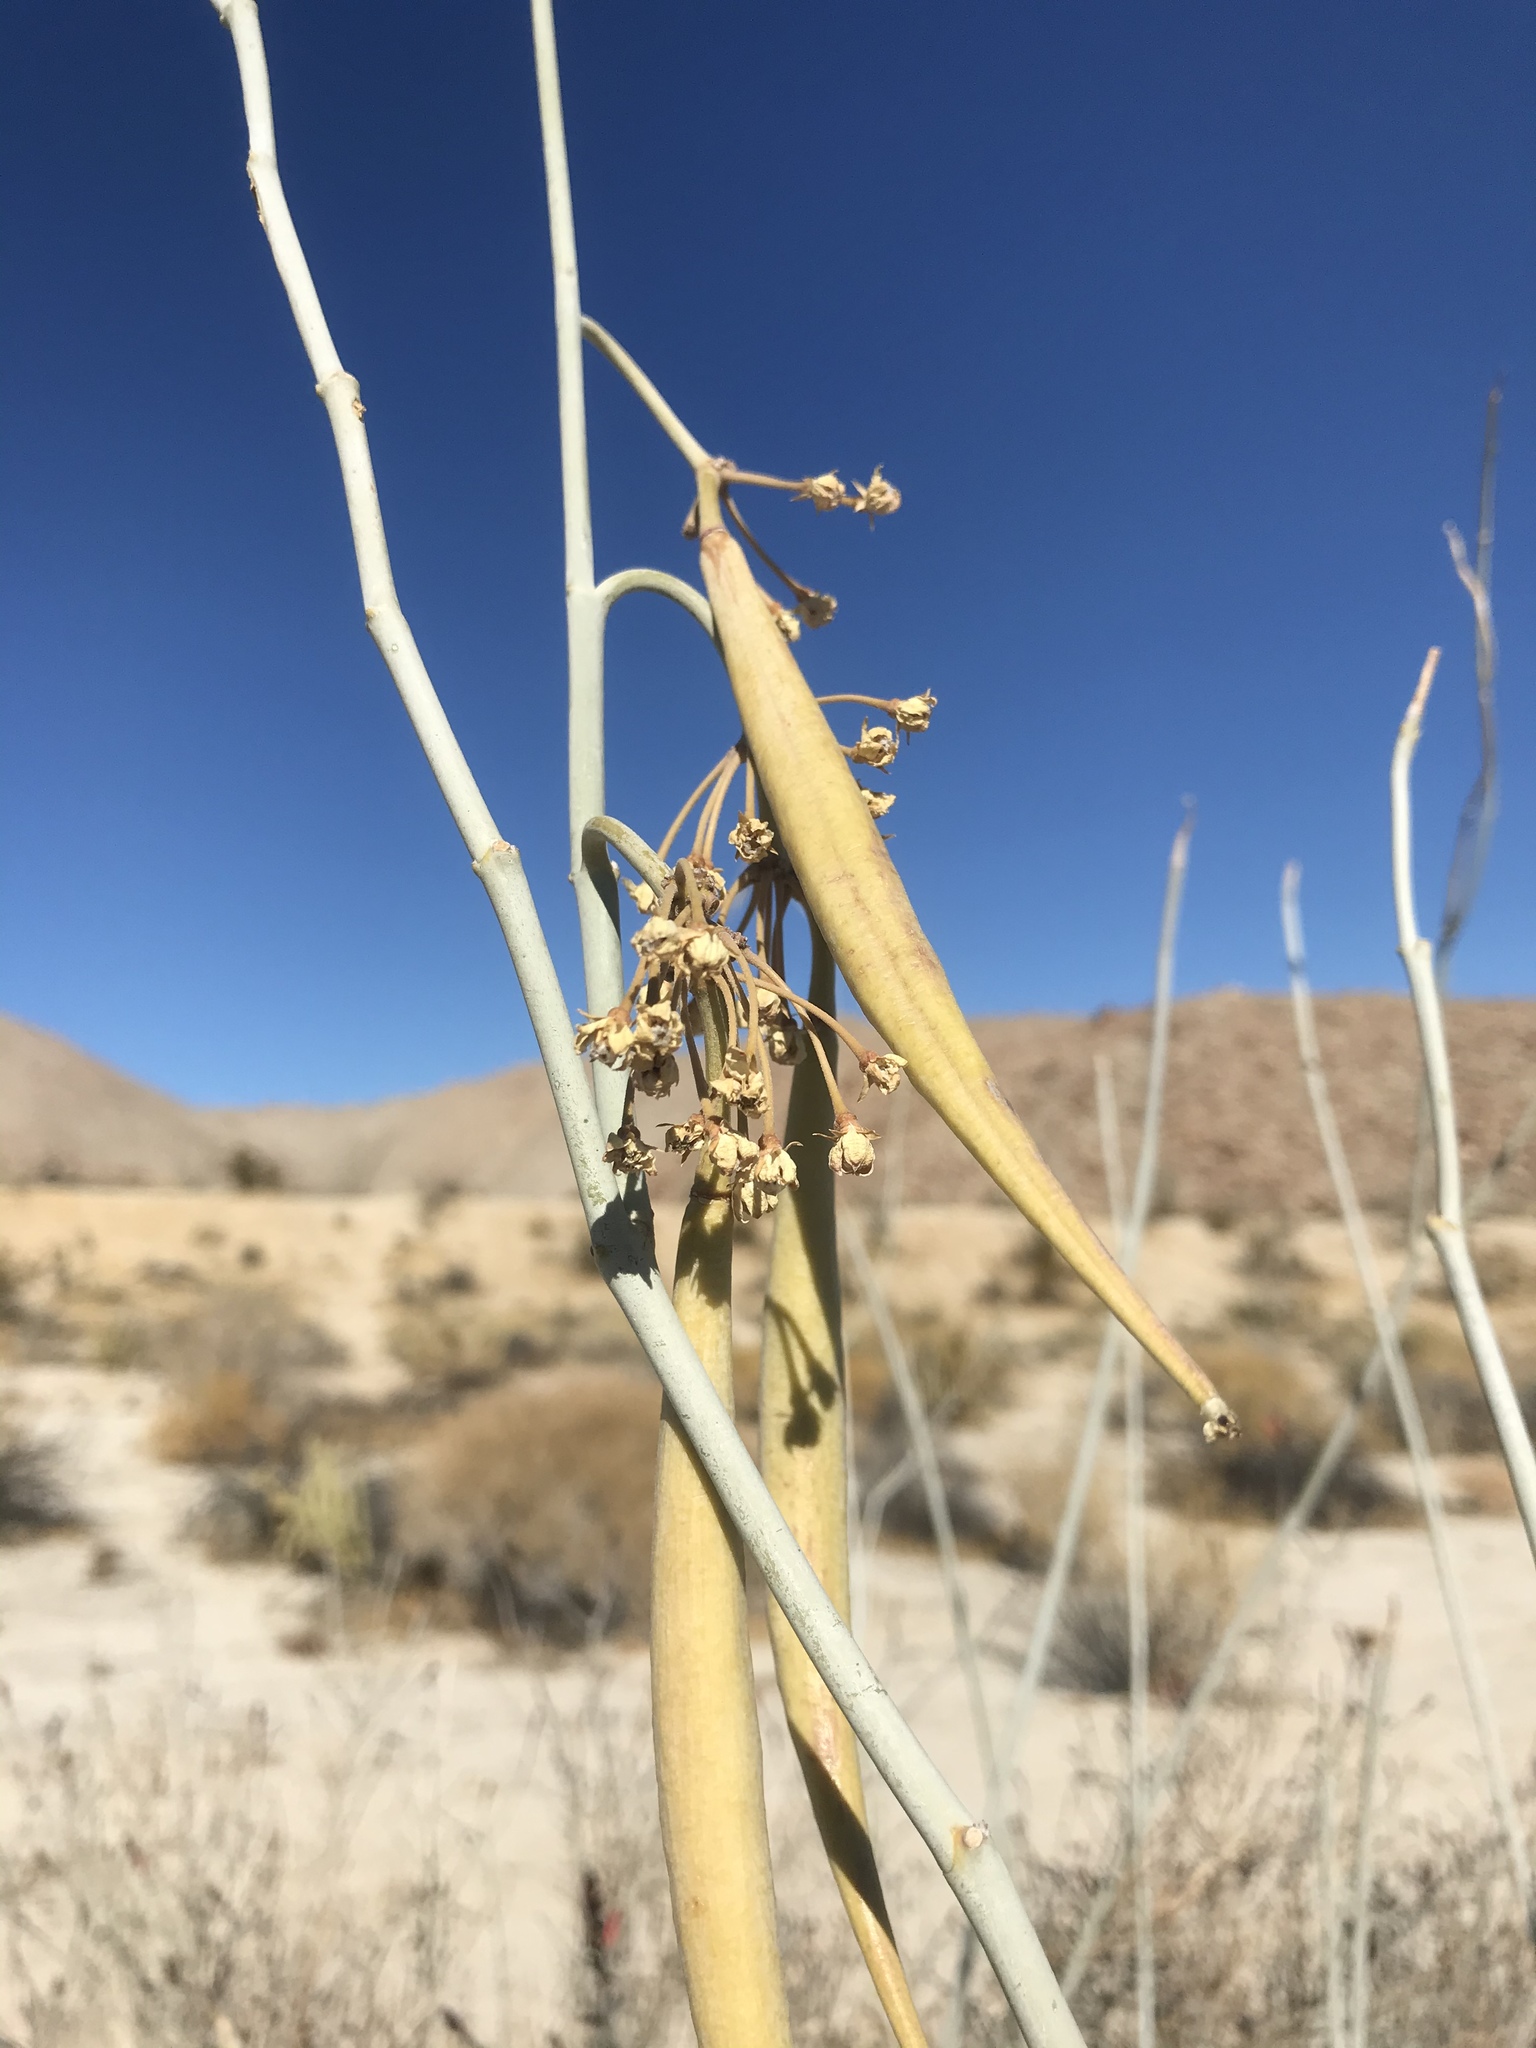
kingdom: Plantae
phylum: Tracheophyta
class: Magnoliopsida
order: Gentianales
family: Apocynaceae
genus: Asclepias
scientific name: Asclepias albicans
